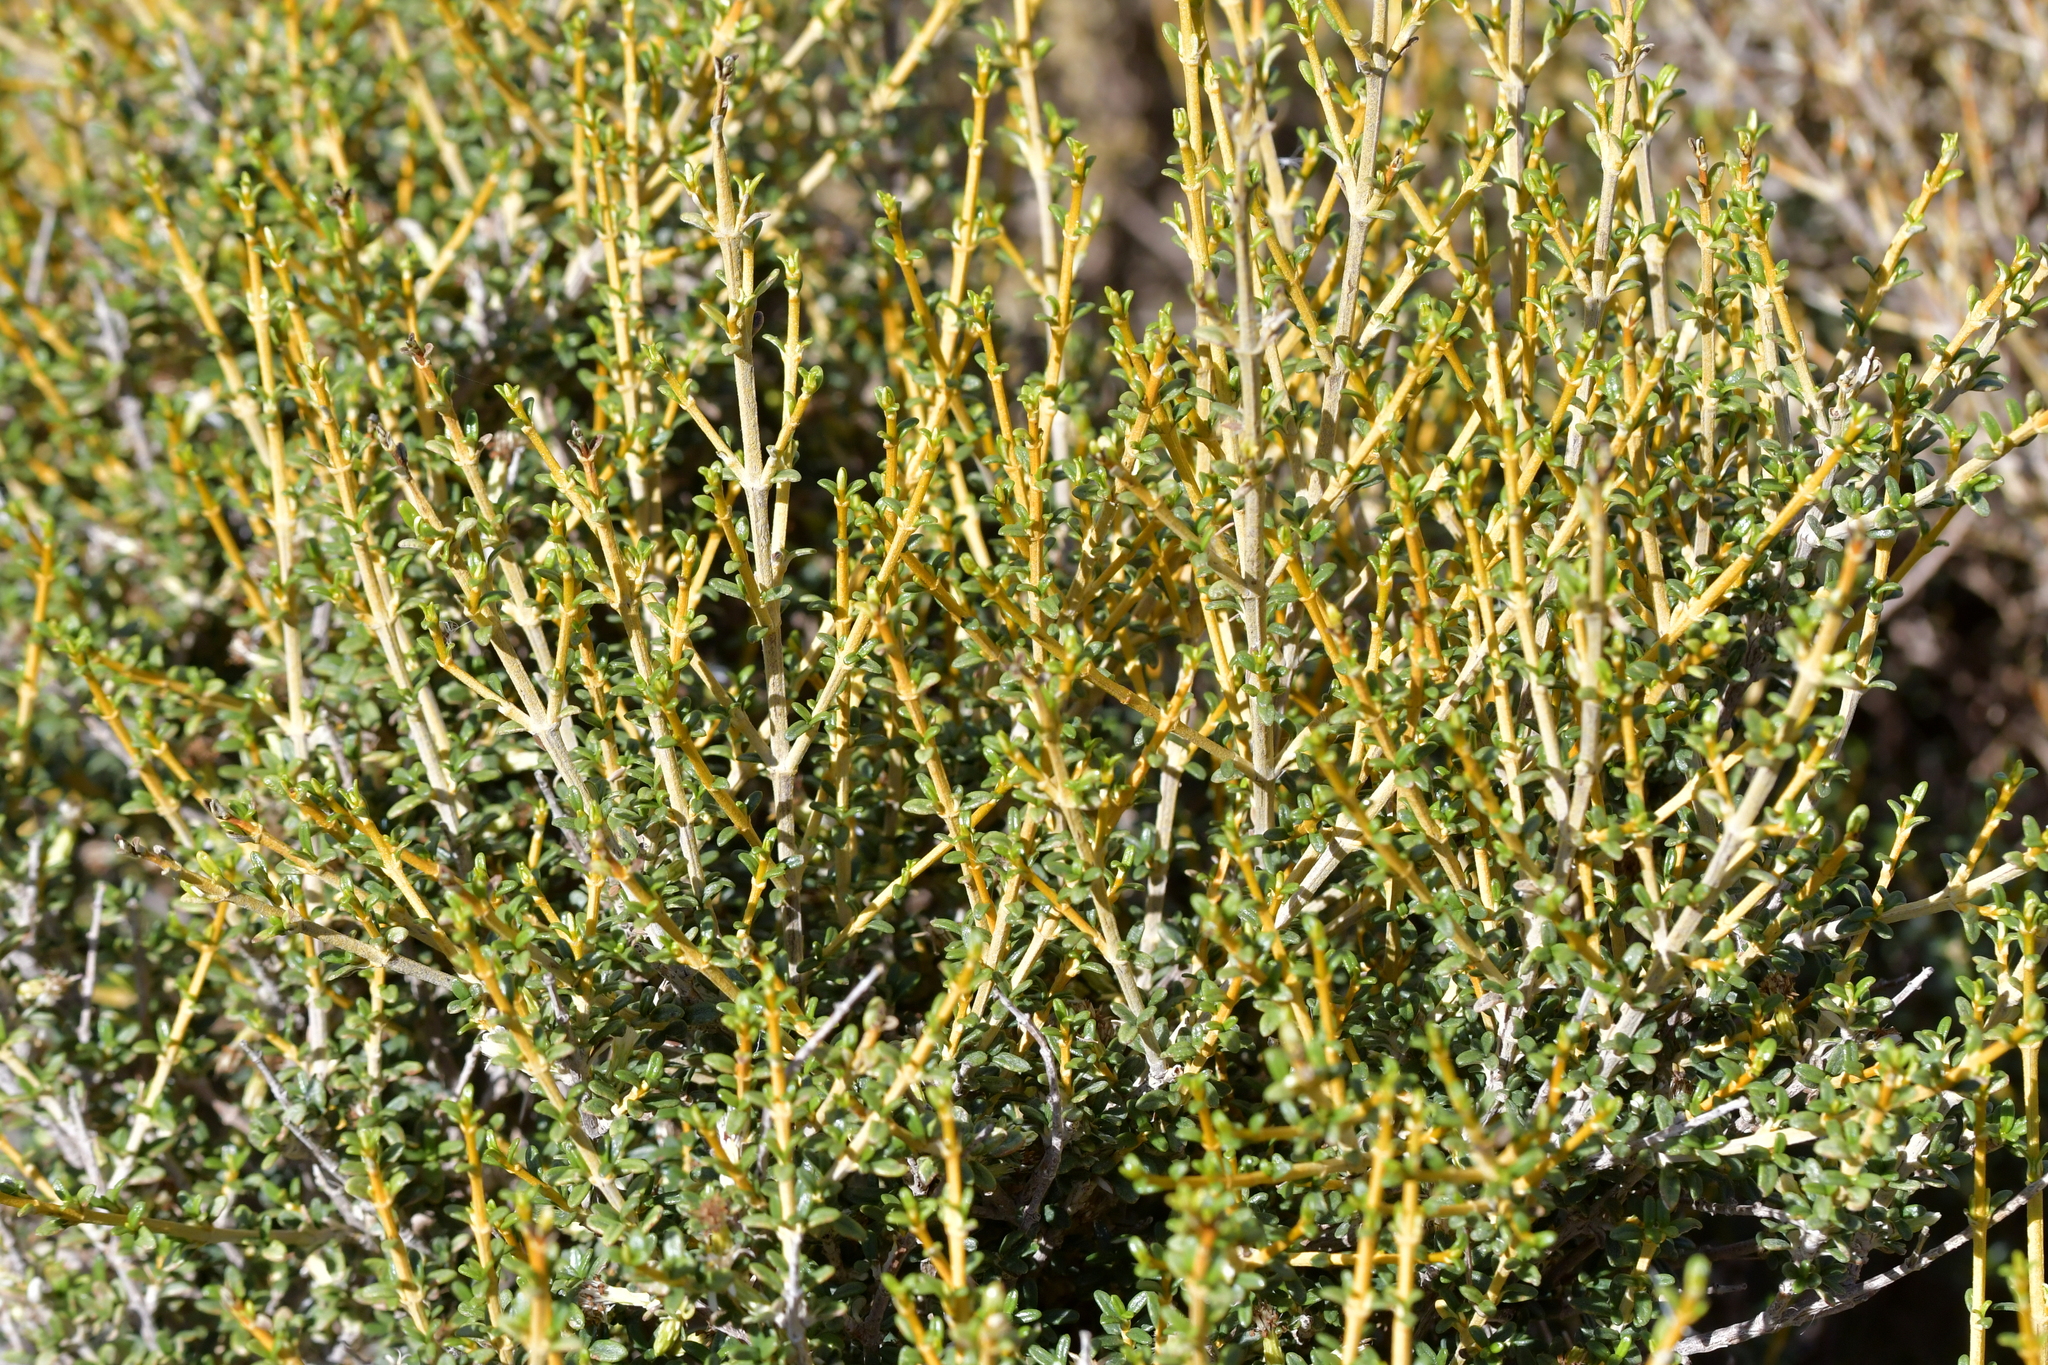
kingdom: Plantae
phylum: Tracheophyta
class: Magnoliopsida
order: Asterales
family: Asteraceae
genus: Olearia
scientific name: Olearia solandri
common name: Coastal daisybush
